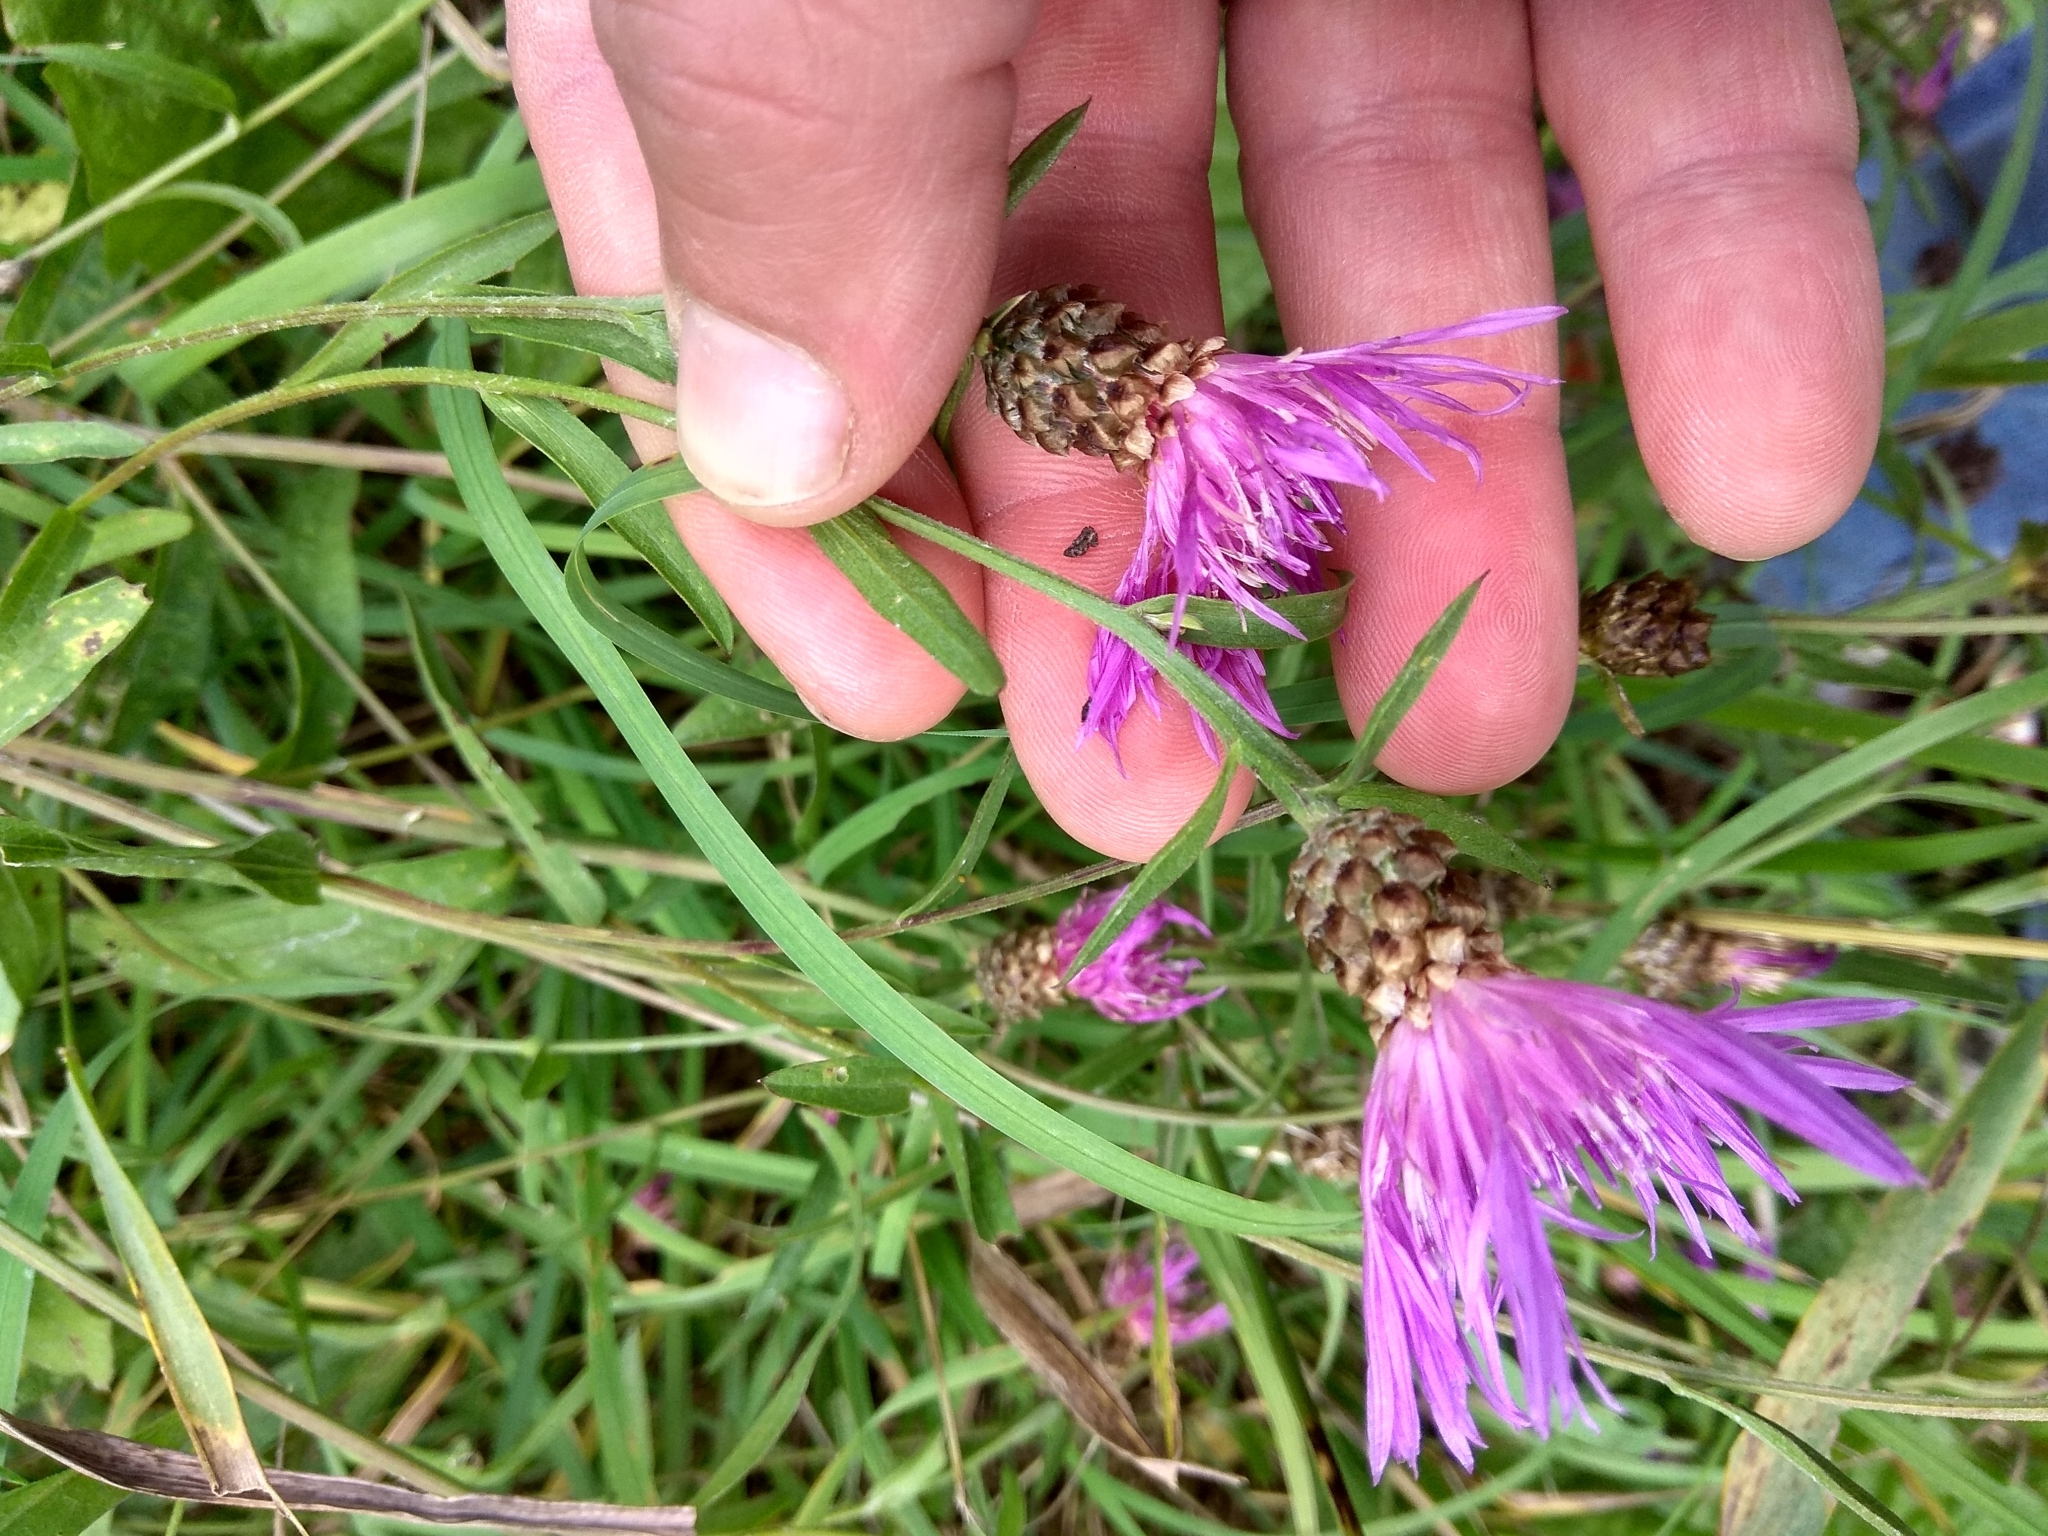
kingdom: Plantae
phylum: Tracheophyta
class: Magnoliopsida
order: Asterales
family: Asteraceae
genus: Centaurea
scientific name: Centaurea jacea
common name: Brown knapweed
